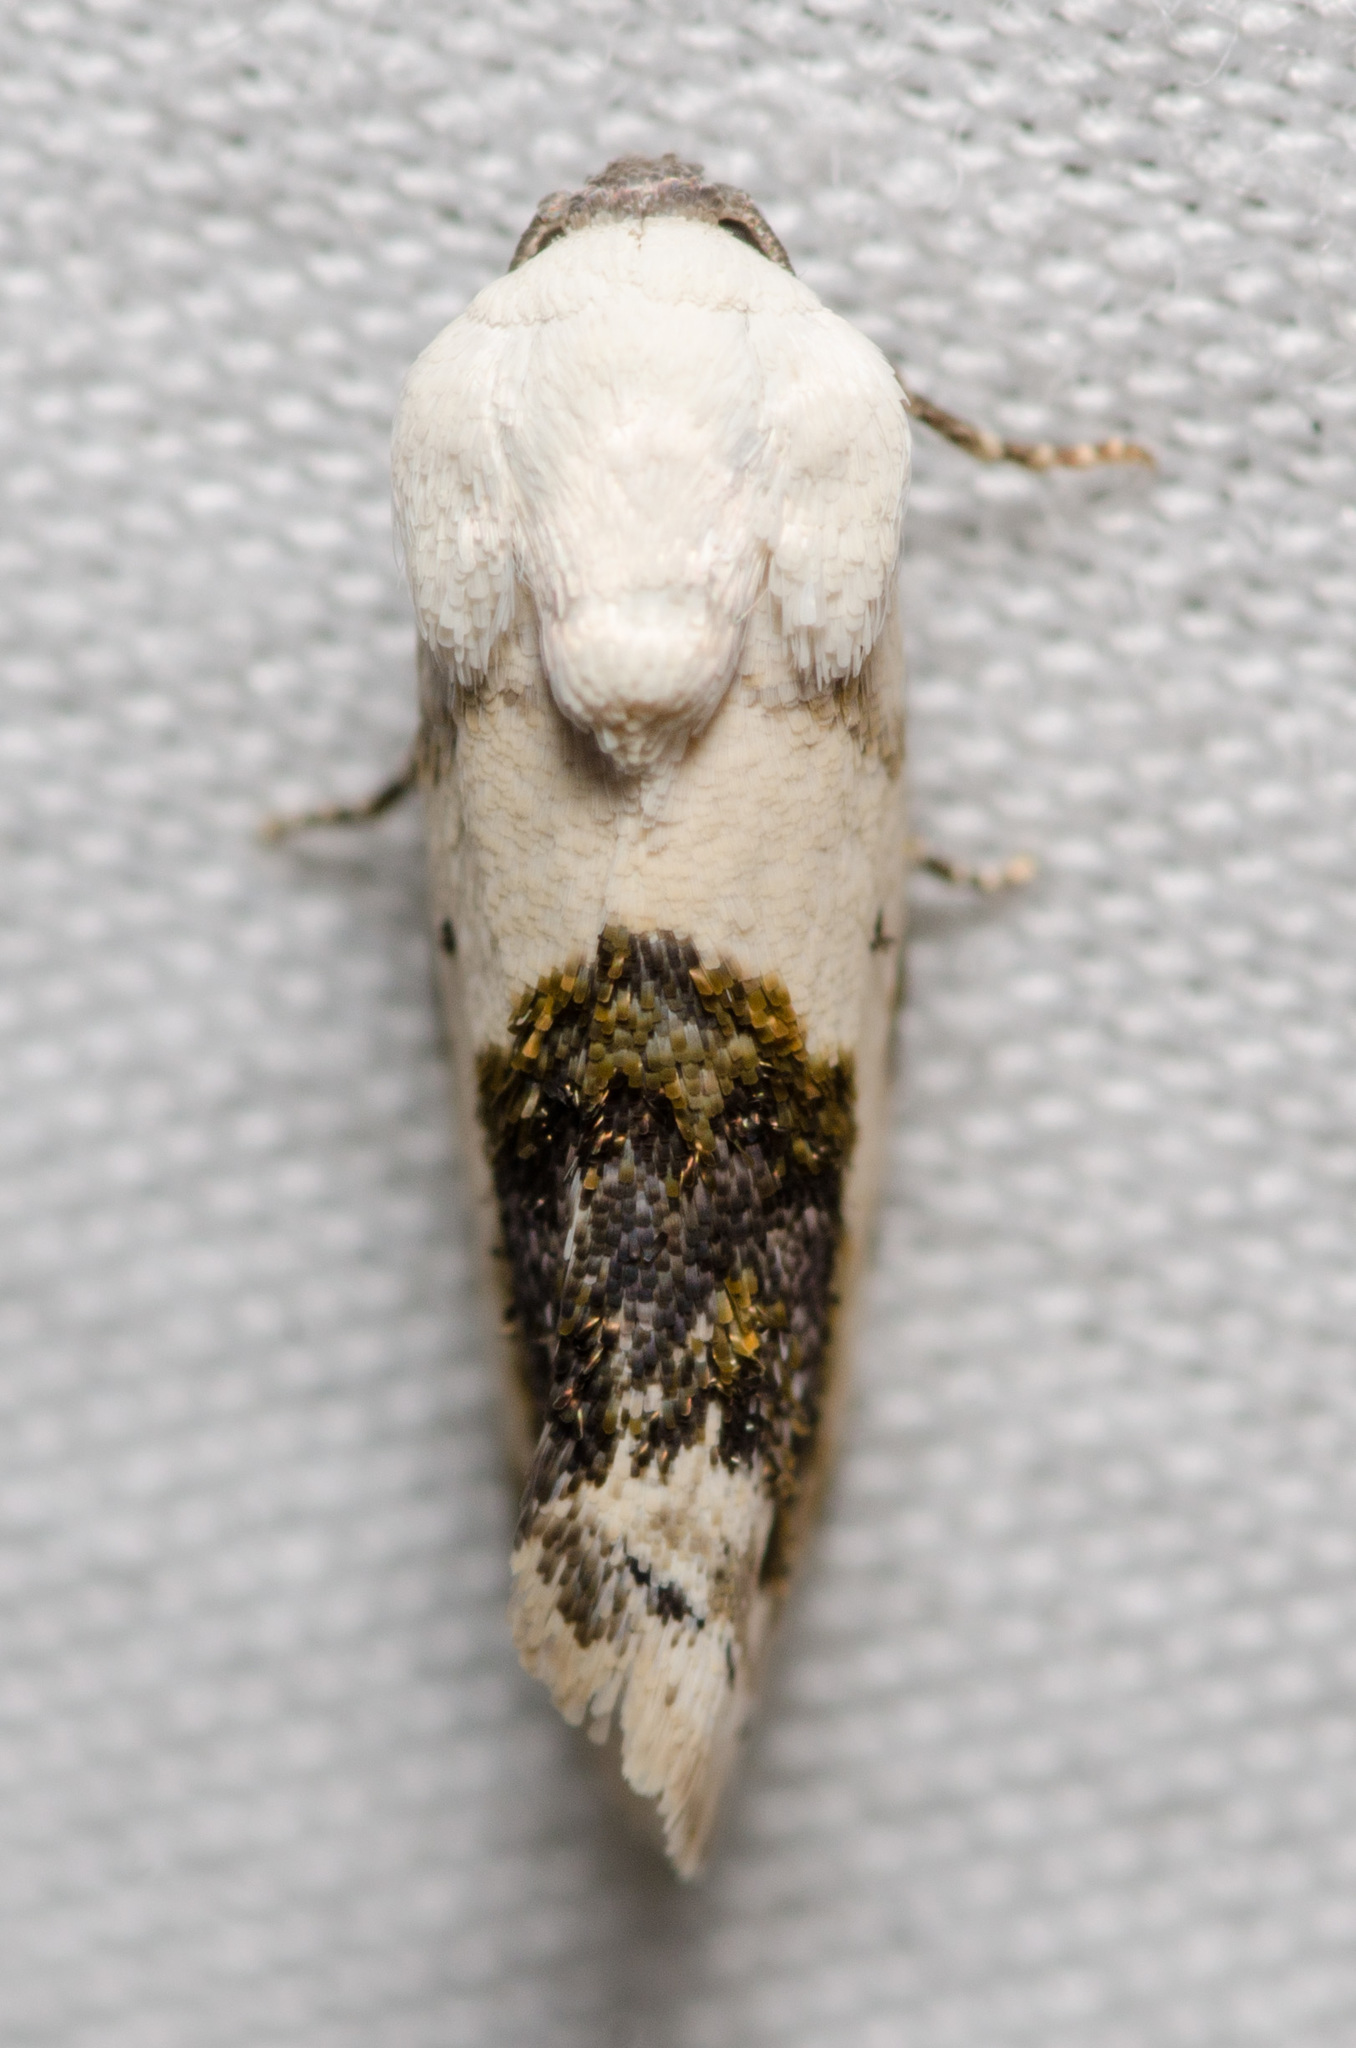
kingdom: Animalia
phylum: Arthropoda
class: Insecta
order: Lepidoptera
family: Noctuidae
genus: Acontia
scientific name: Acontia erastrioides
